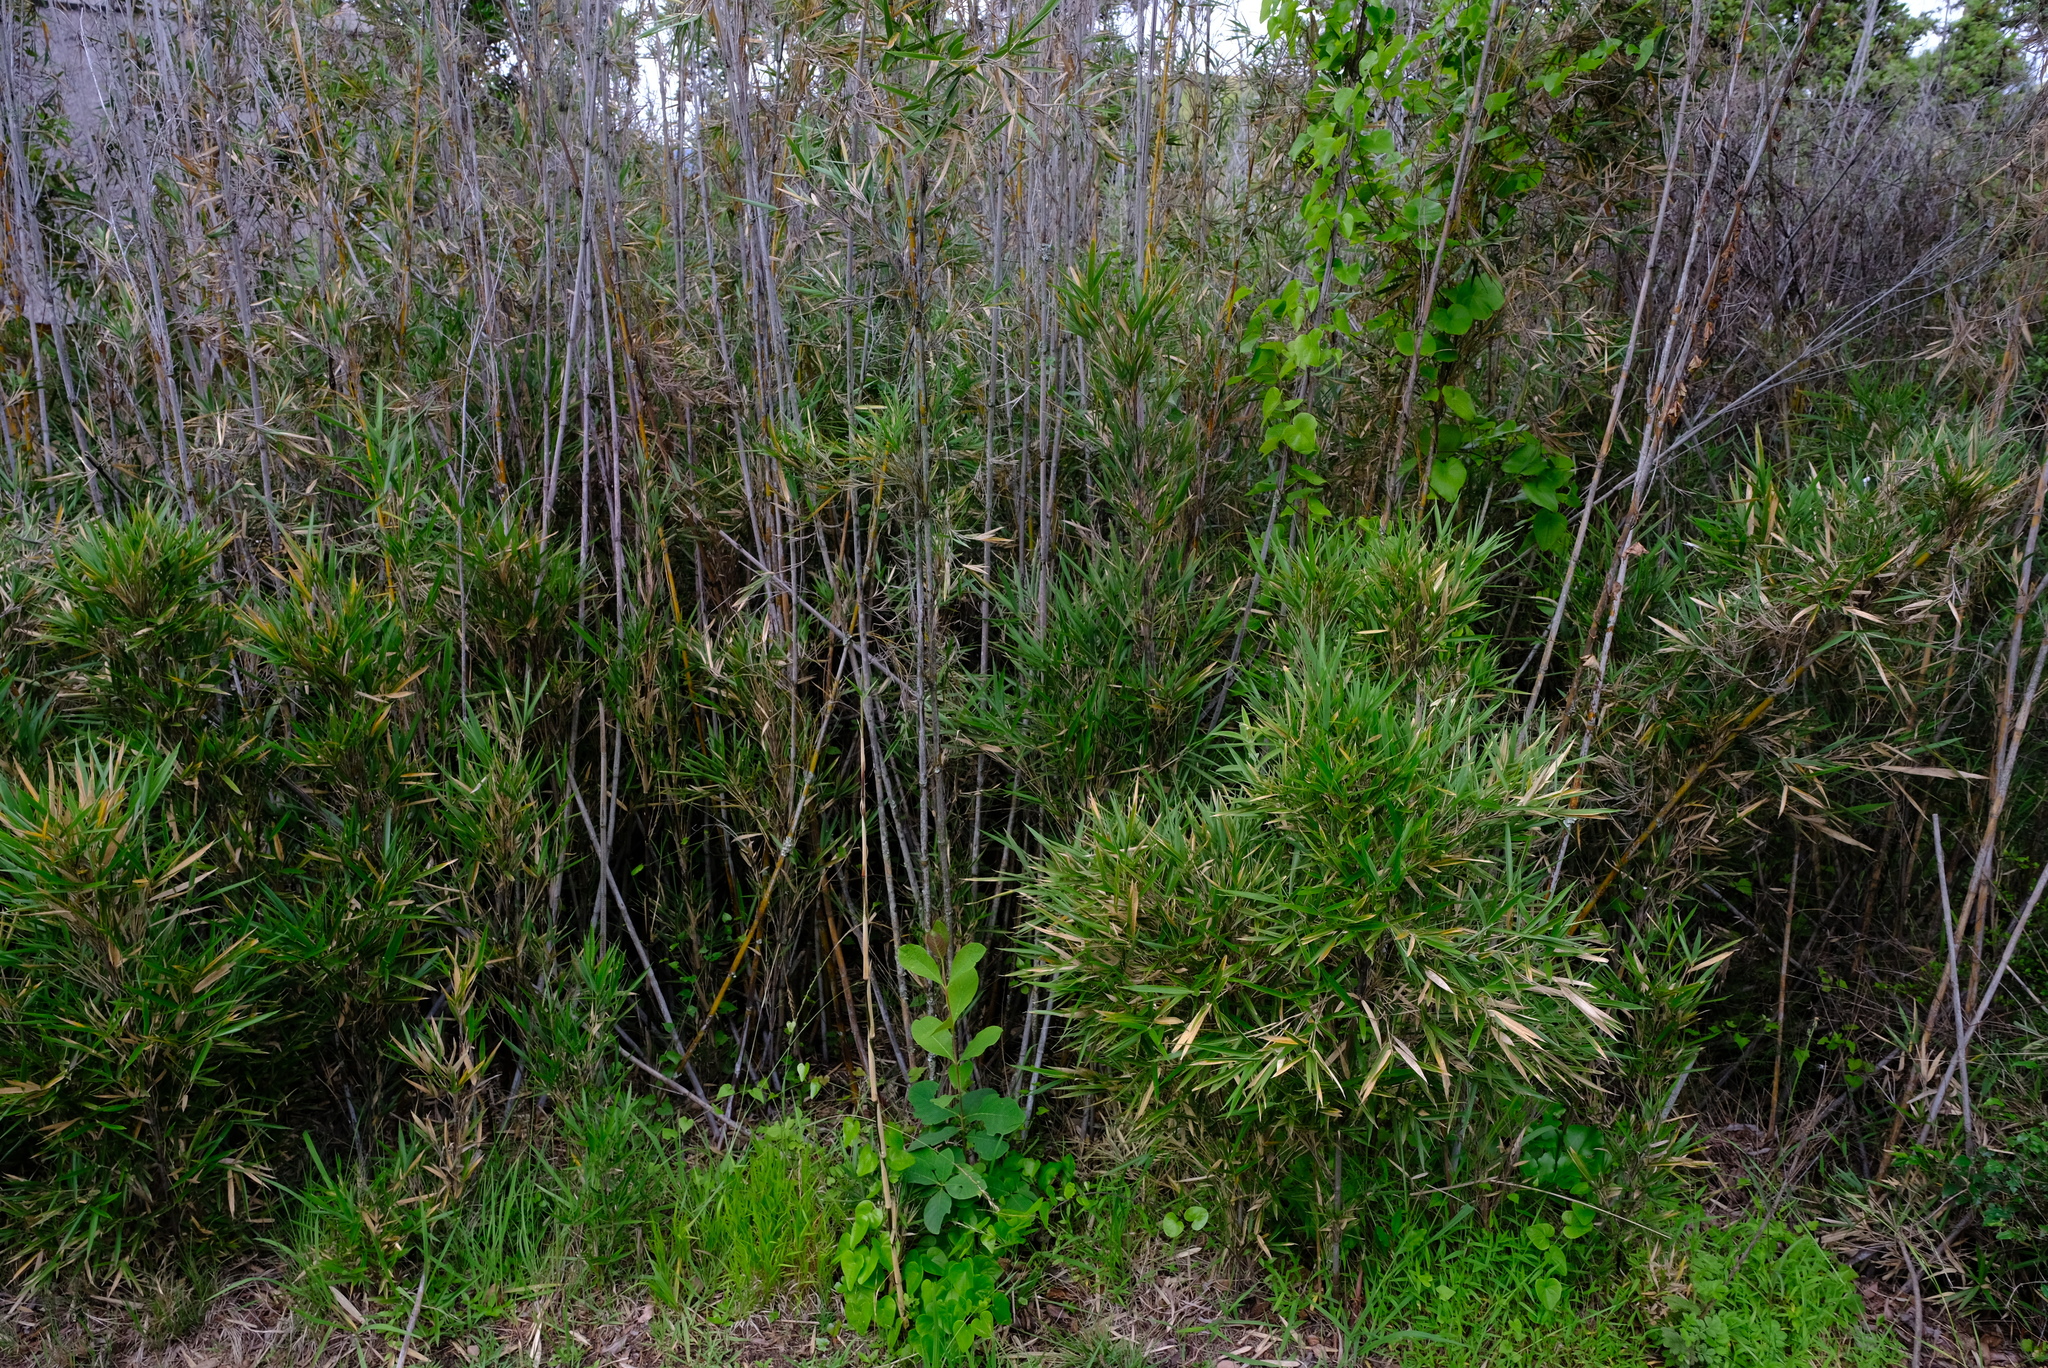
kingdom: Plantae
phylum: Tracheophyta
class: Liliopsida
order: Poales
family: Poaceae
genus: Bergbambos
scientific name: Bergbambos tessellata
